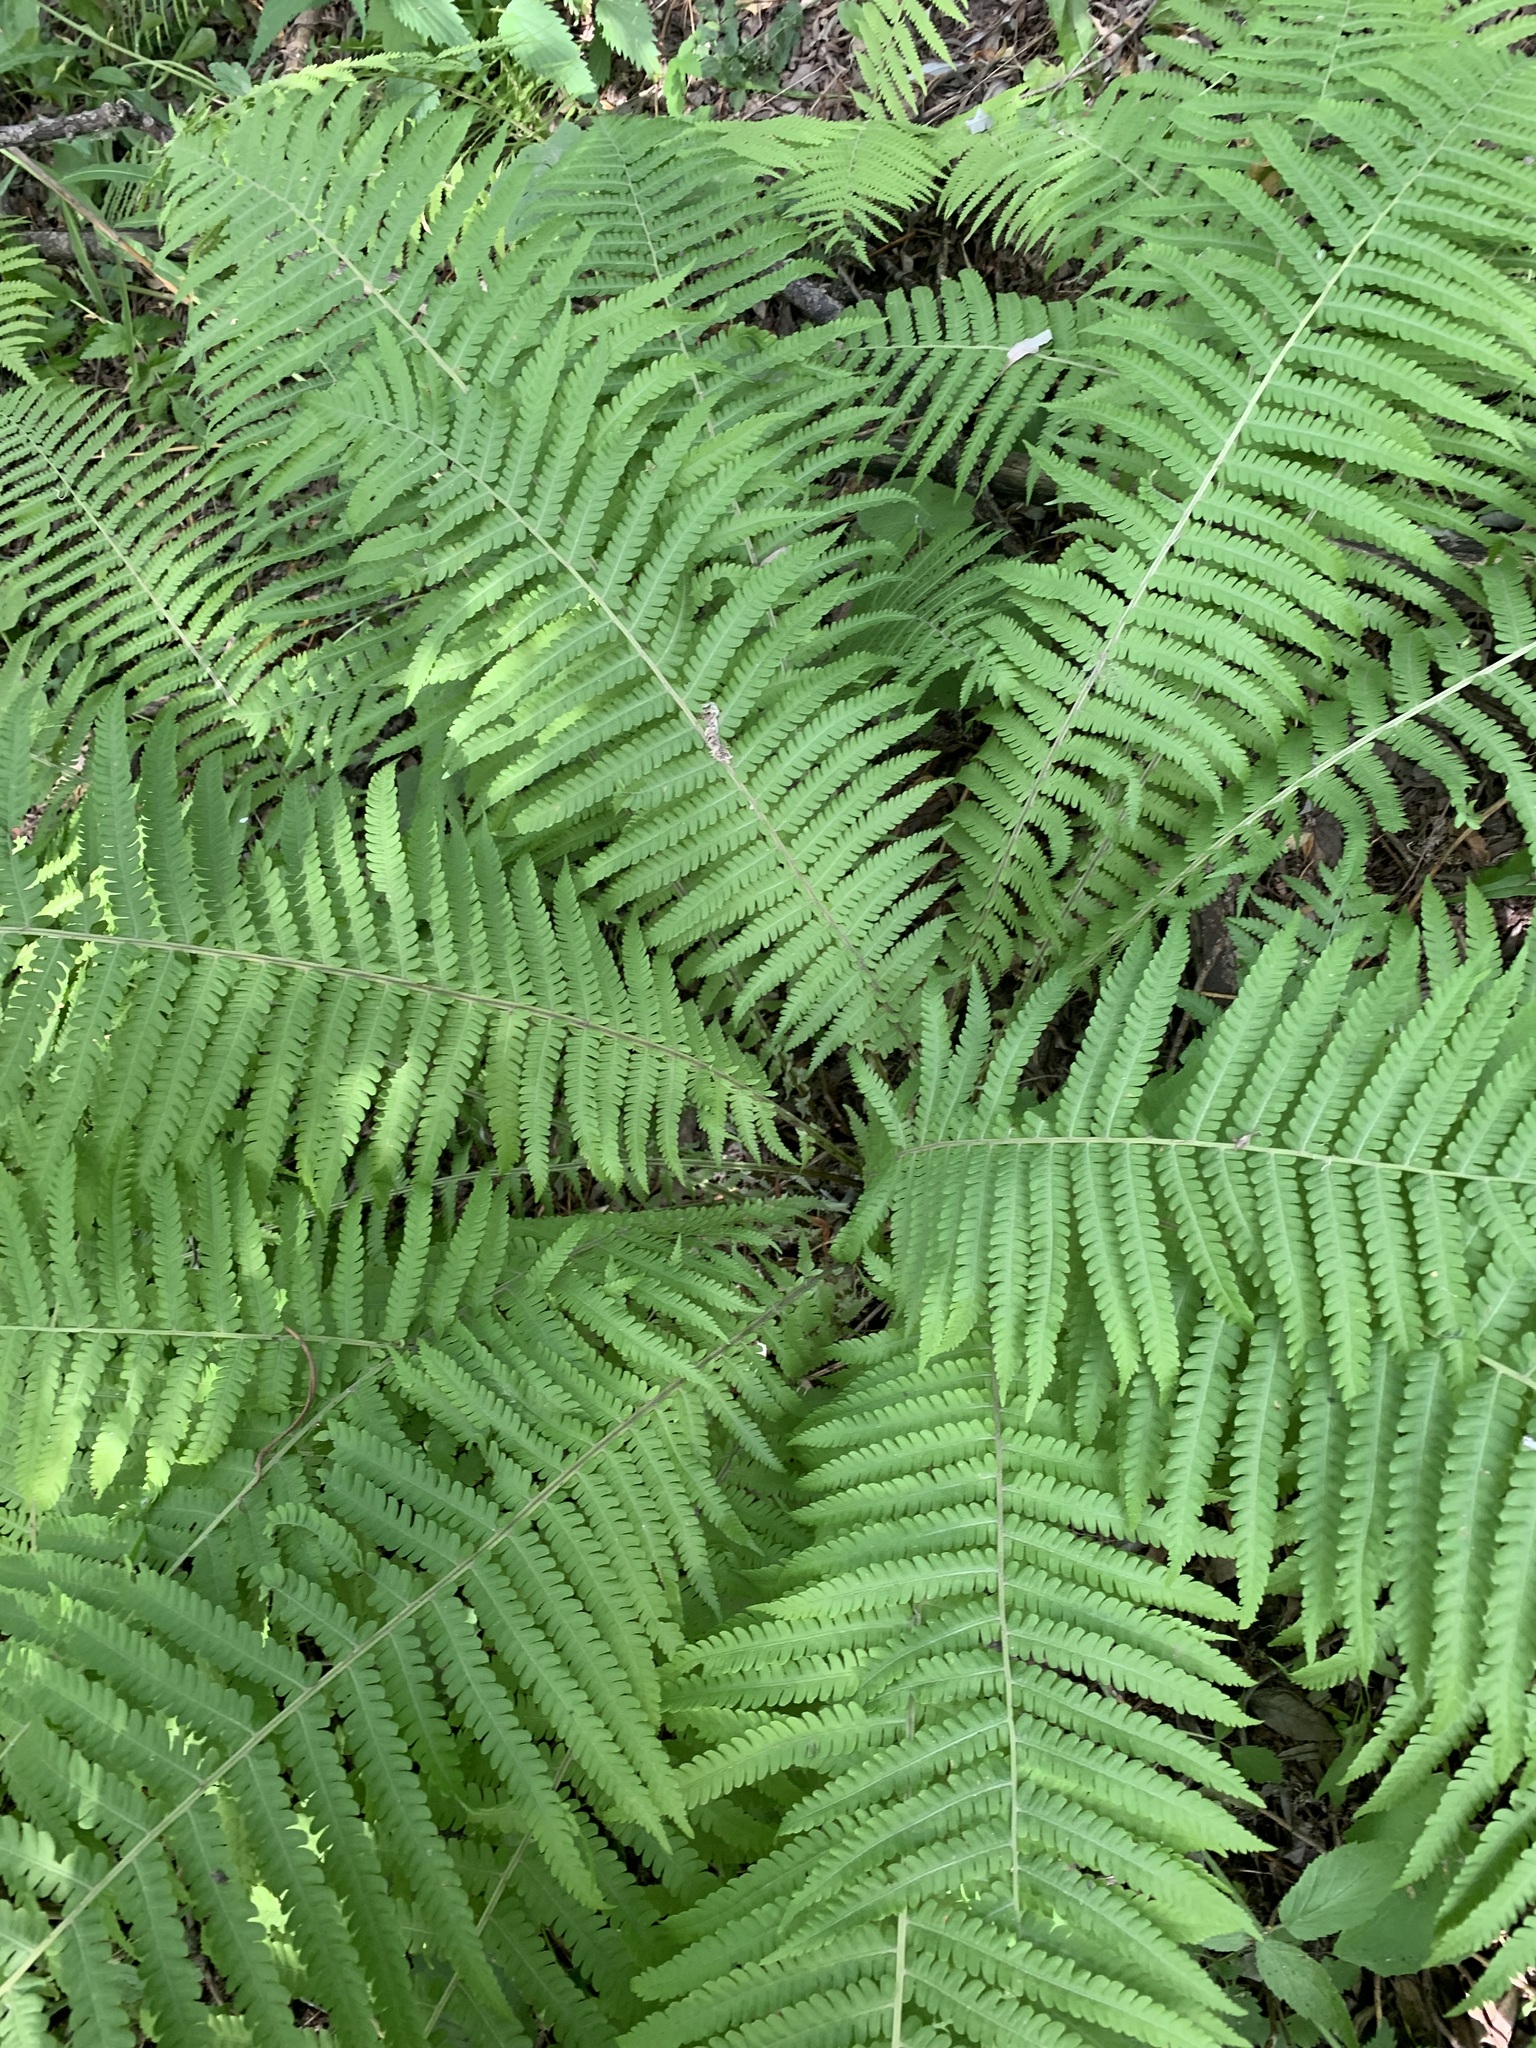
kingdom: Plantae
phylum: Tracheophyta
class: Polypodiopsida
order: Polypodiales
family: Onocleaceae
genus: Matteuccia
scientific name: Matteuccia struthiopteris
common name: Ostrich fern
